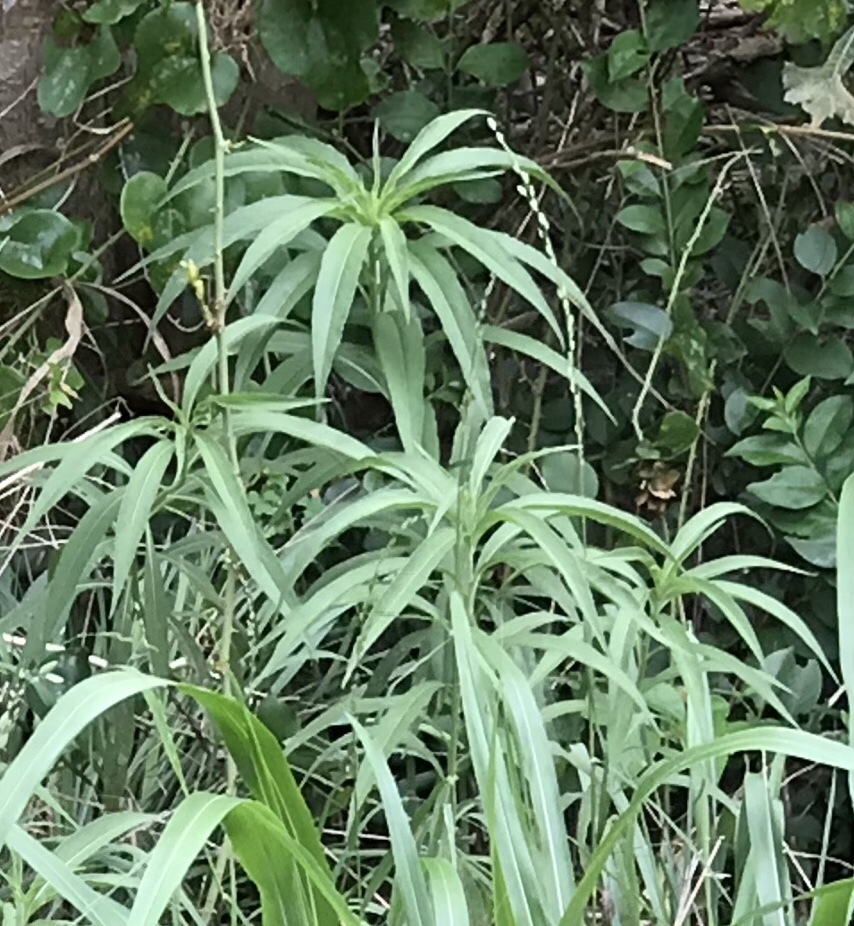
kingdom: Plantae
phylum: Tracheophyta
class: Magnoliopsida
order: Asterales
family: Asteraceae
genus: Helianthus
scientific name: Helianthus maximiliani
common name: Maximilian's sunflower
